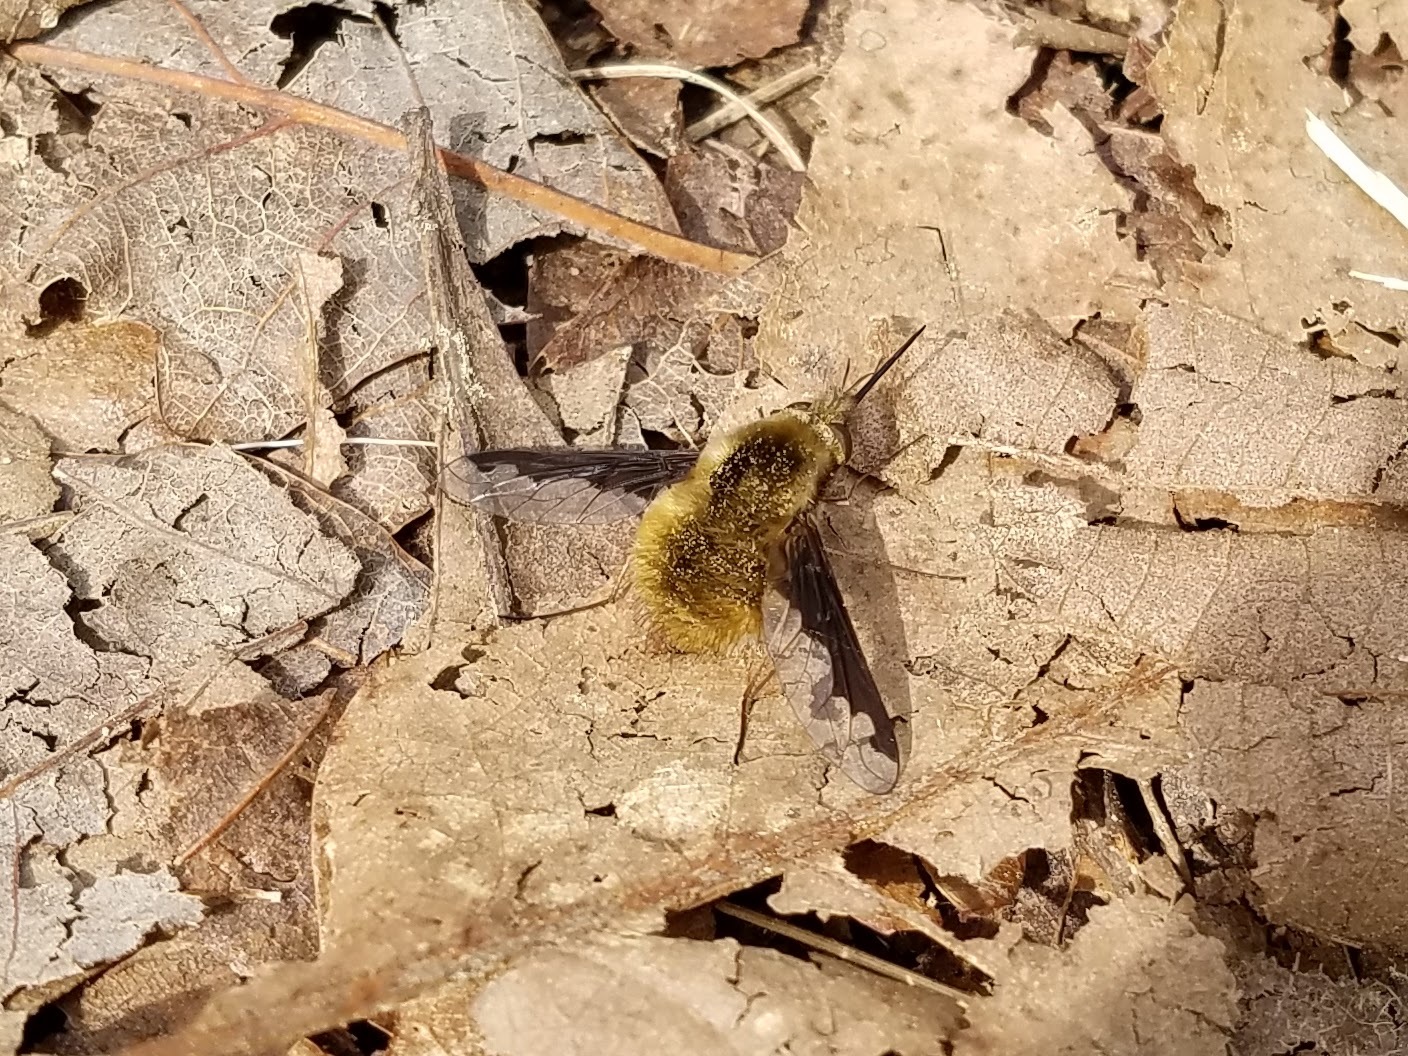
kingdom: Animalia
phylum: Arthropoda
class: Insecta
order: Diptera
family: Bombyliidae
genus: Bombylius
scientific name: Bombylius major
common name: Bee fly
